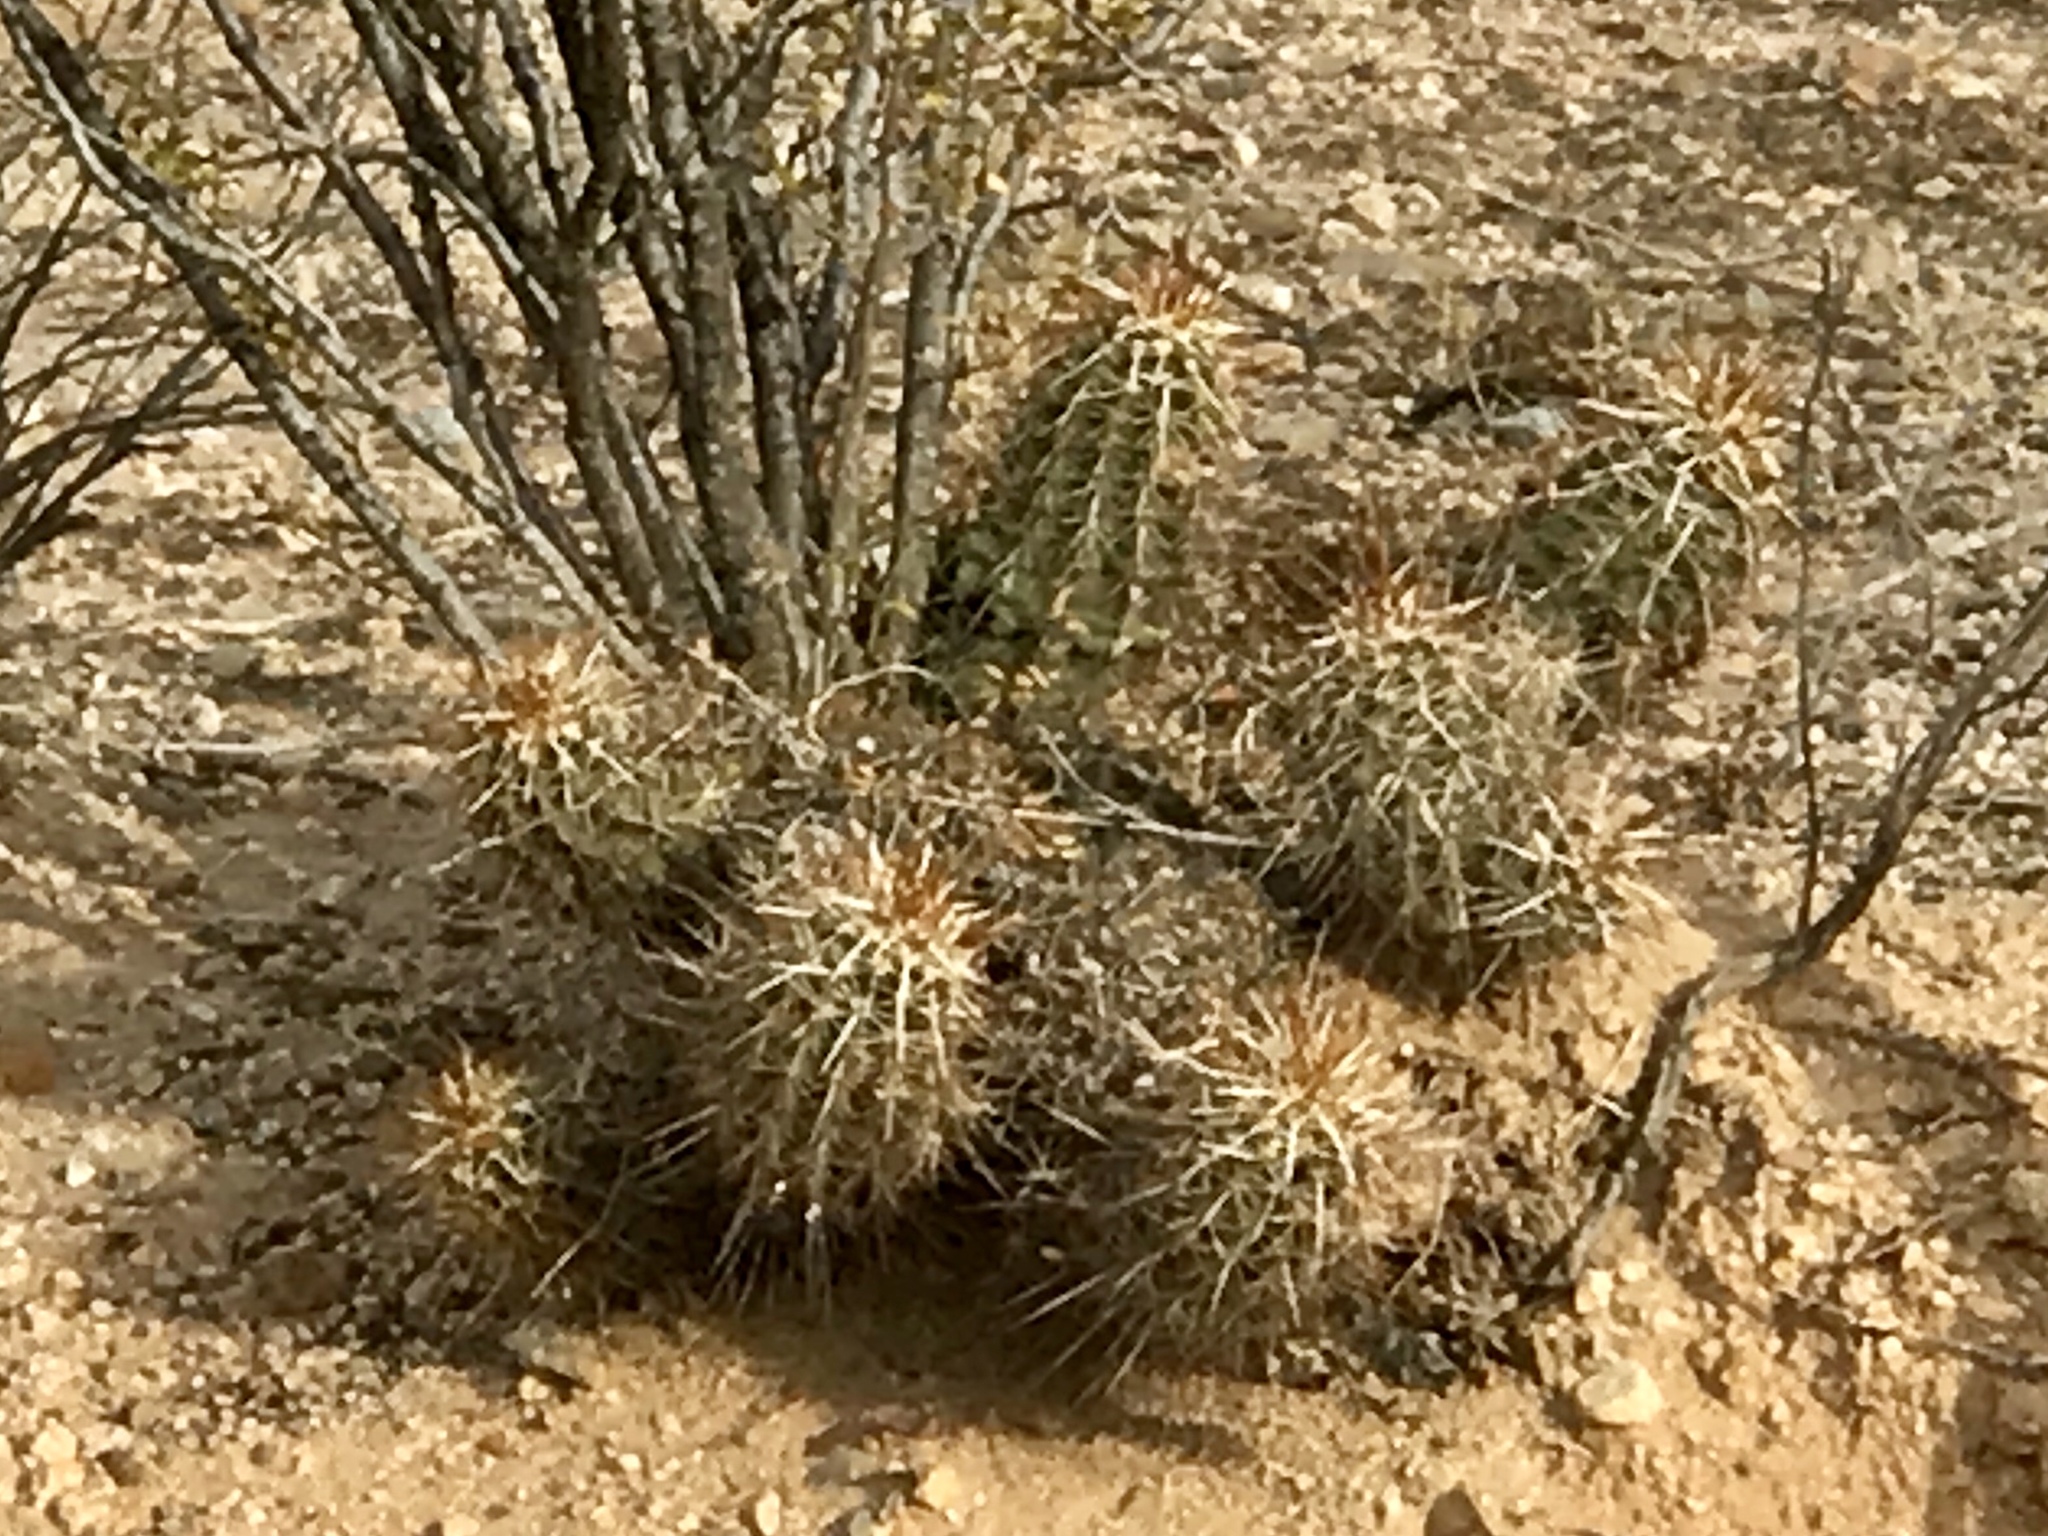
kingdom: Plantae
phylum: Tracheophyta
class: Magnoliopsida
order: Caryophyllales
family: Cactaceae
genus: Echinocereus
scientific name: Echinocereus fasciculatus
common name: Bundle hedgehog
